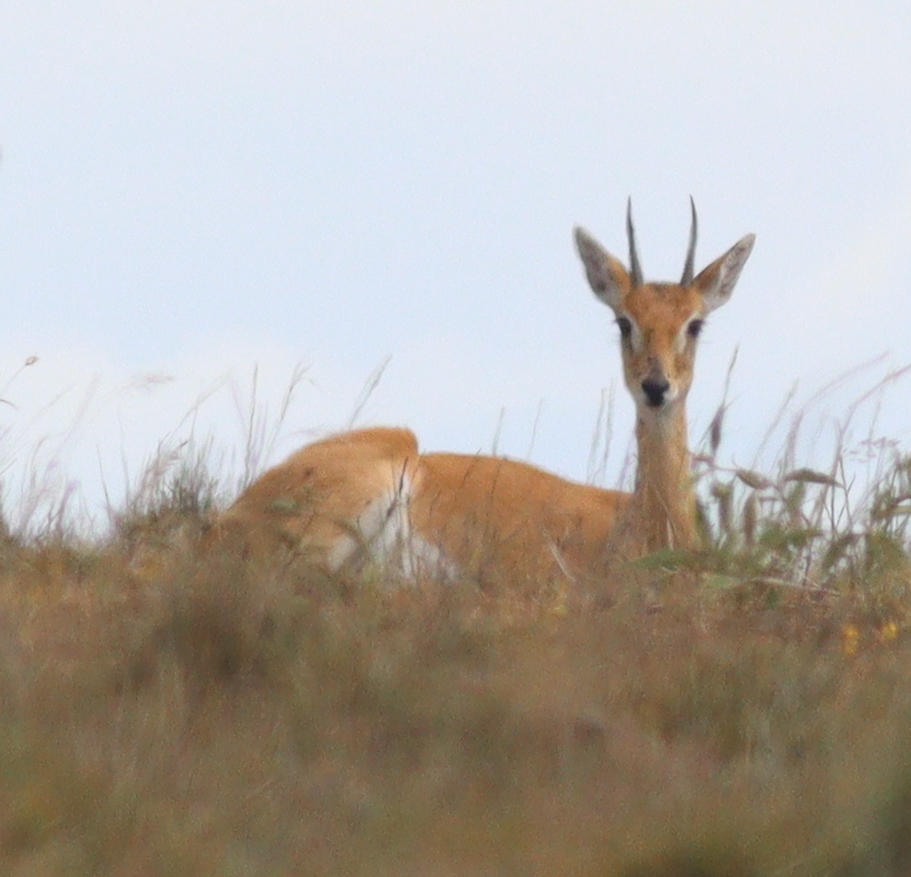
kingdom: Animalia
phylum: Chordata
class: Mammalia
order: Artiodactyla
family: Bovidae
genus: Ourebia
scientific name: Ourebia ourebi
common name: Oribi
